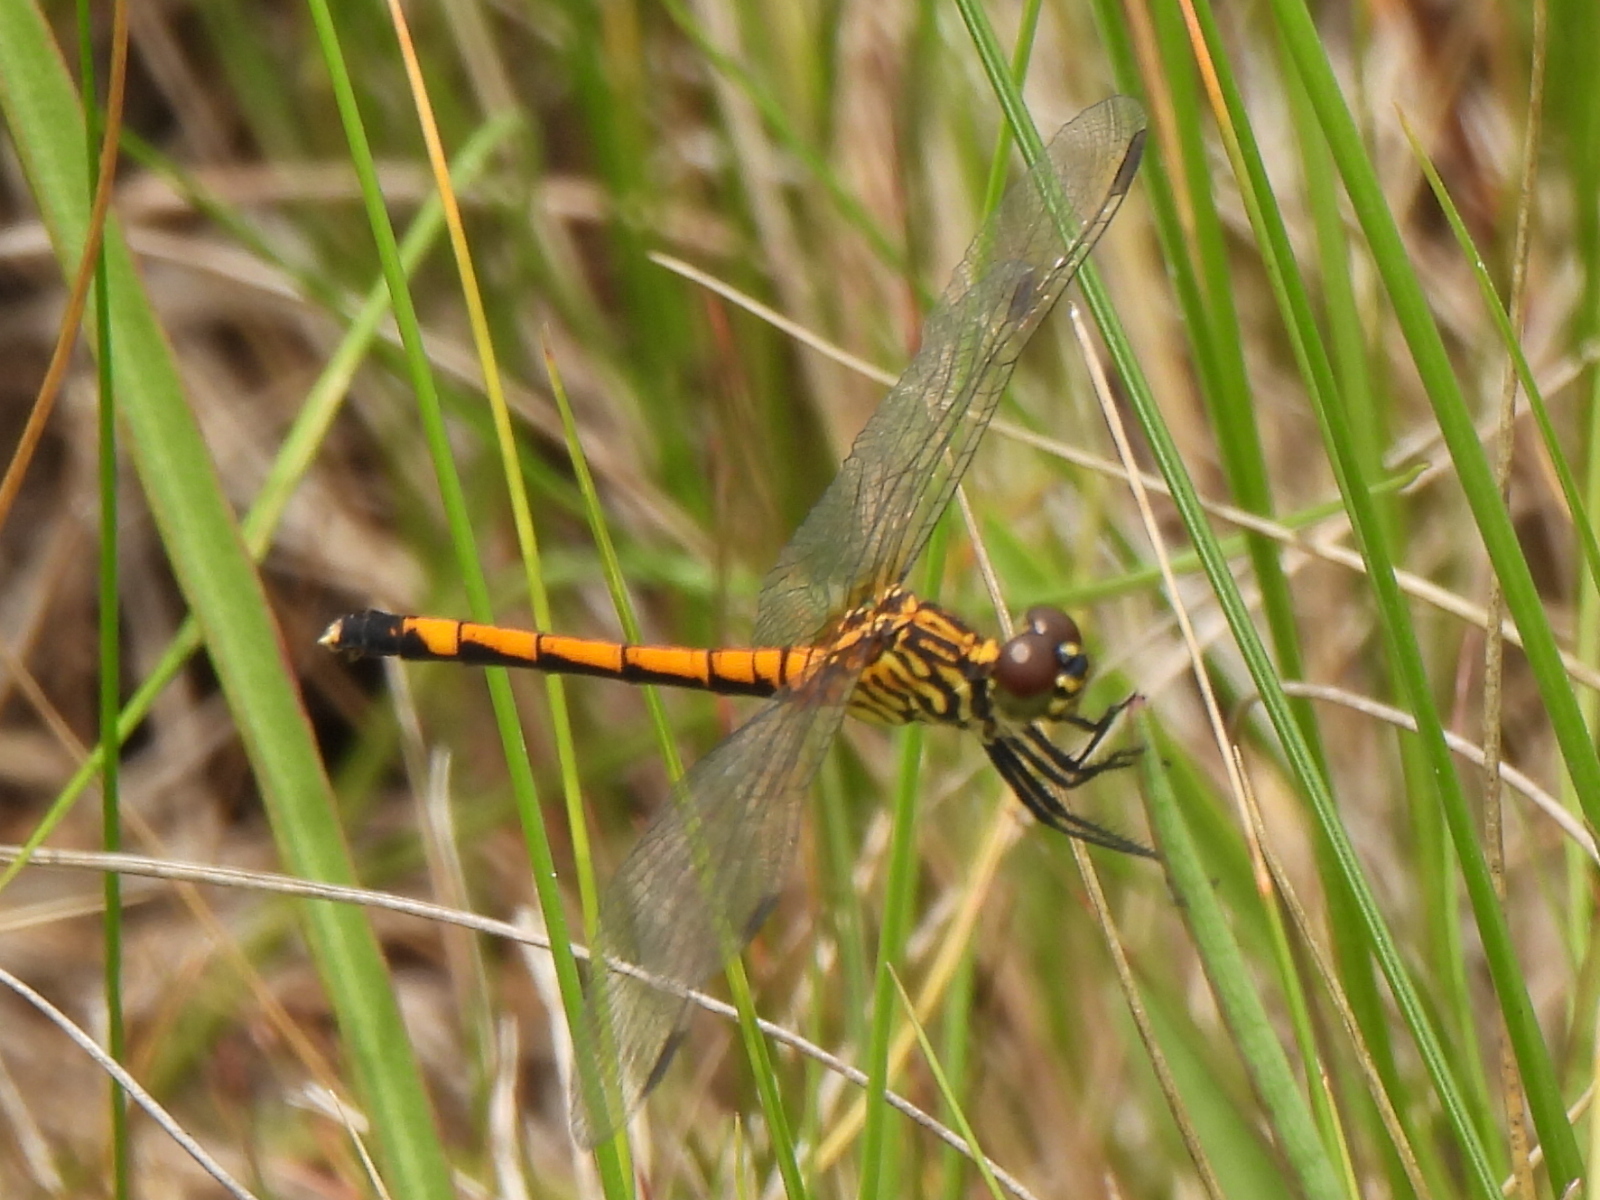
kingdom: Animalia
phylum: Arthropoda
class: Insecta
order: Odonata
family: Libellulidae
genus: Erythrodiplax
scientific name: Erythrodiplax berenice
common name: Seaside dragonlet
